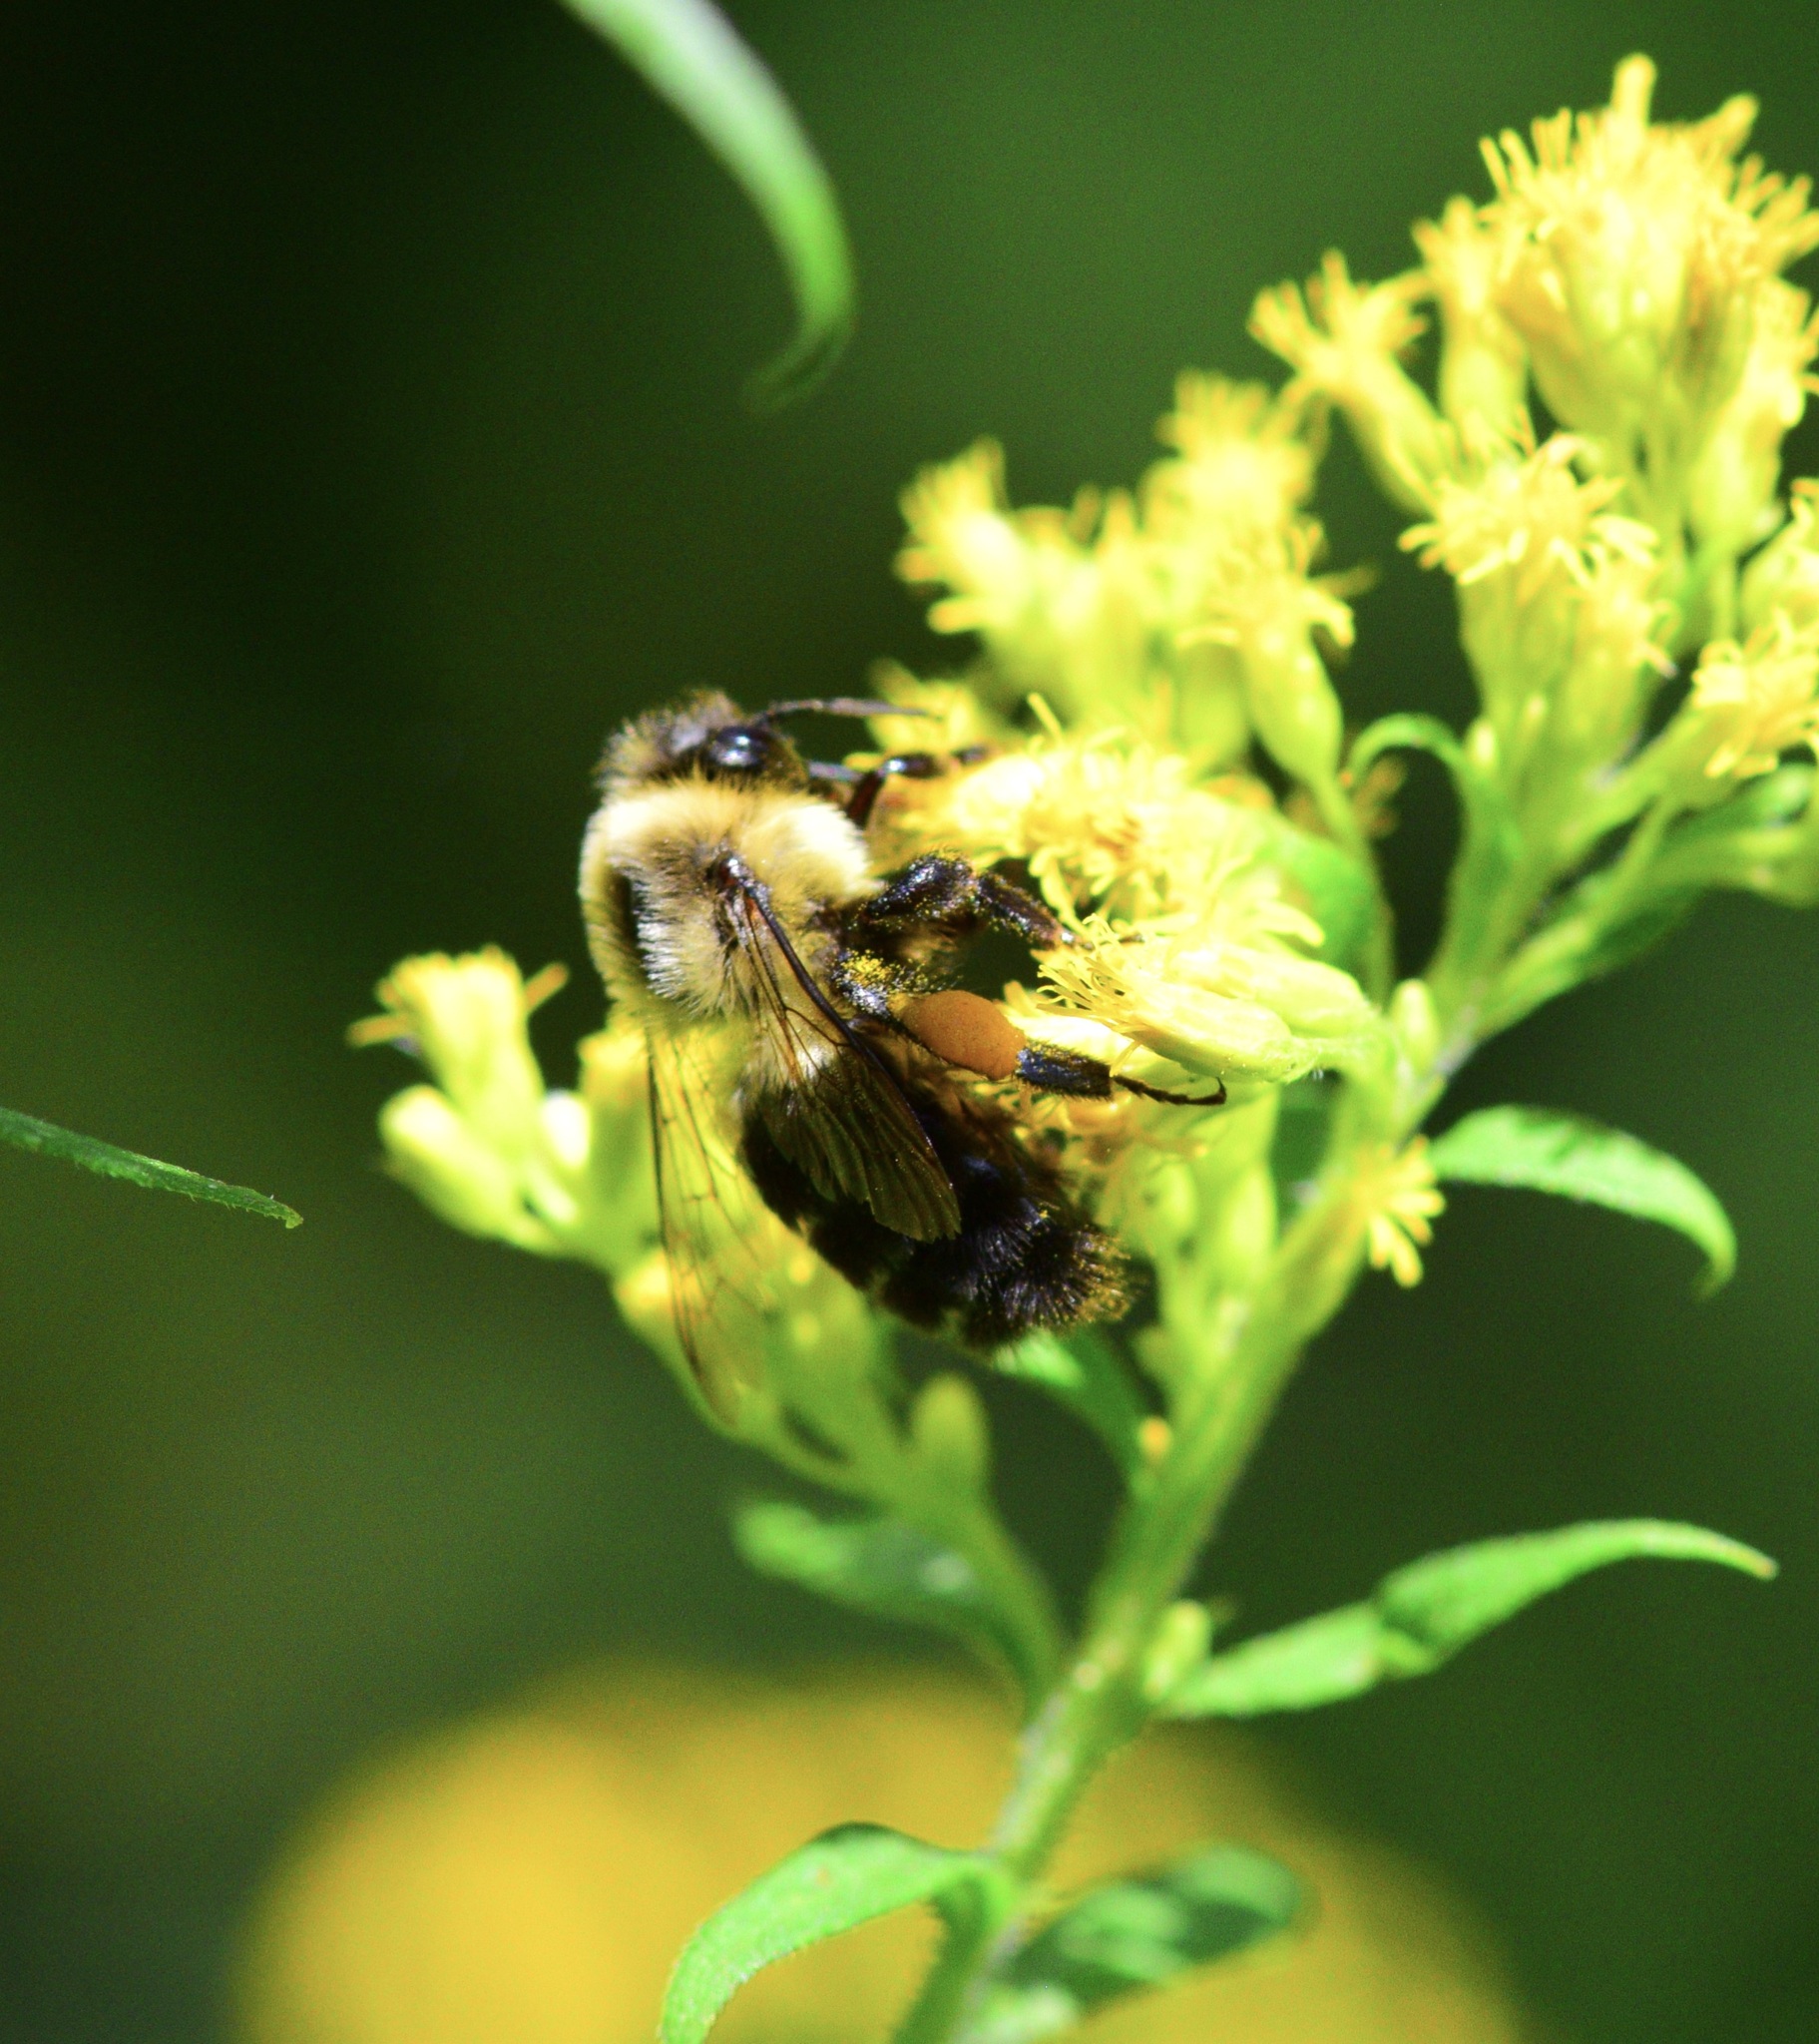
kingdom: Animalia
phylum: Arthropoda
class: Insecta
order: Hymenoptera
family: Apidae
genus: Bombus
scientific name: Bombus impatiens
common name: Common eastern bumble bee
